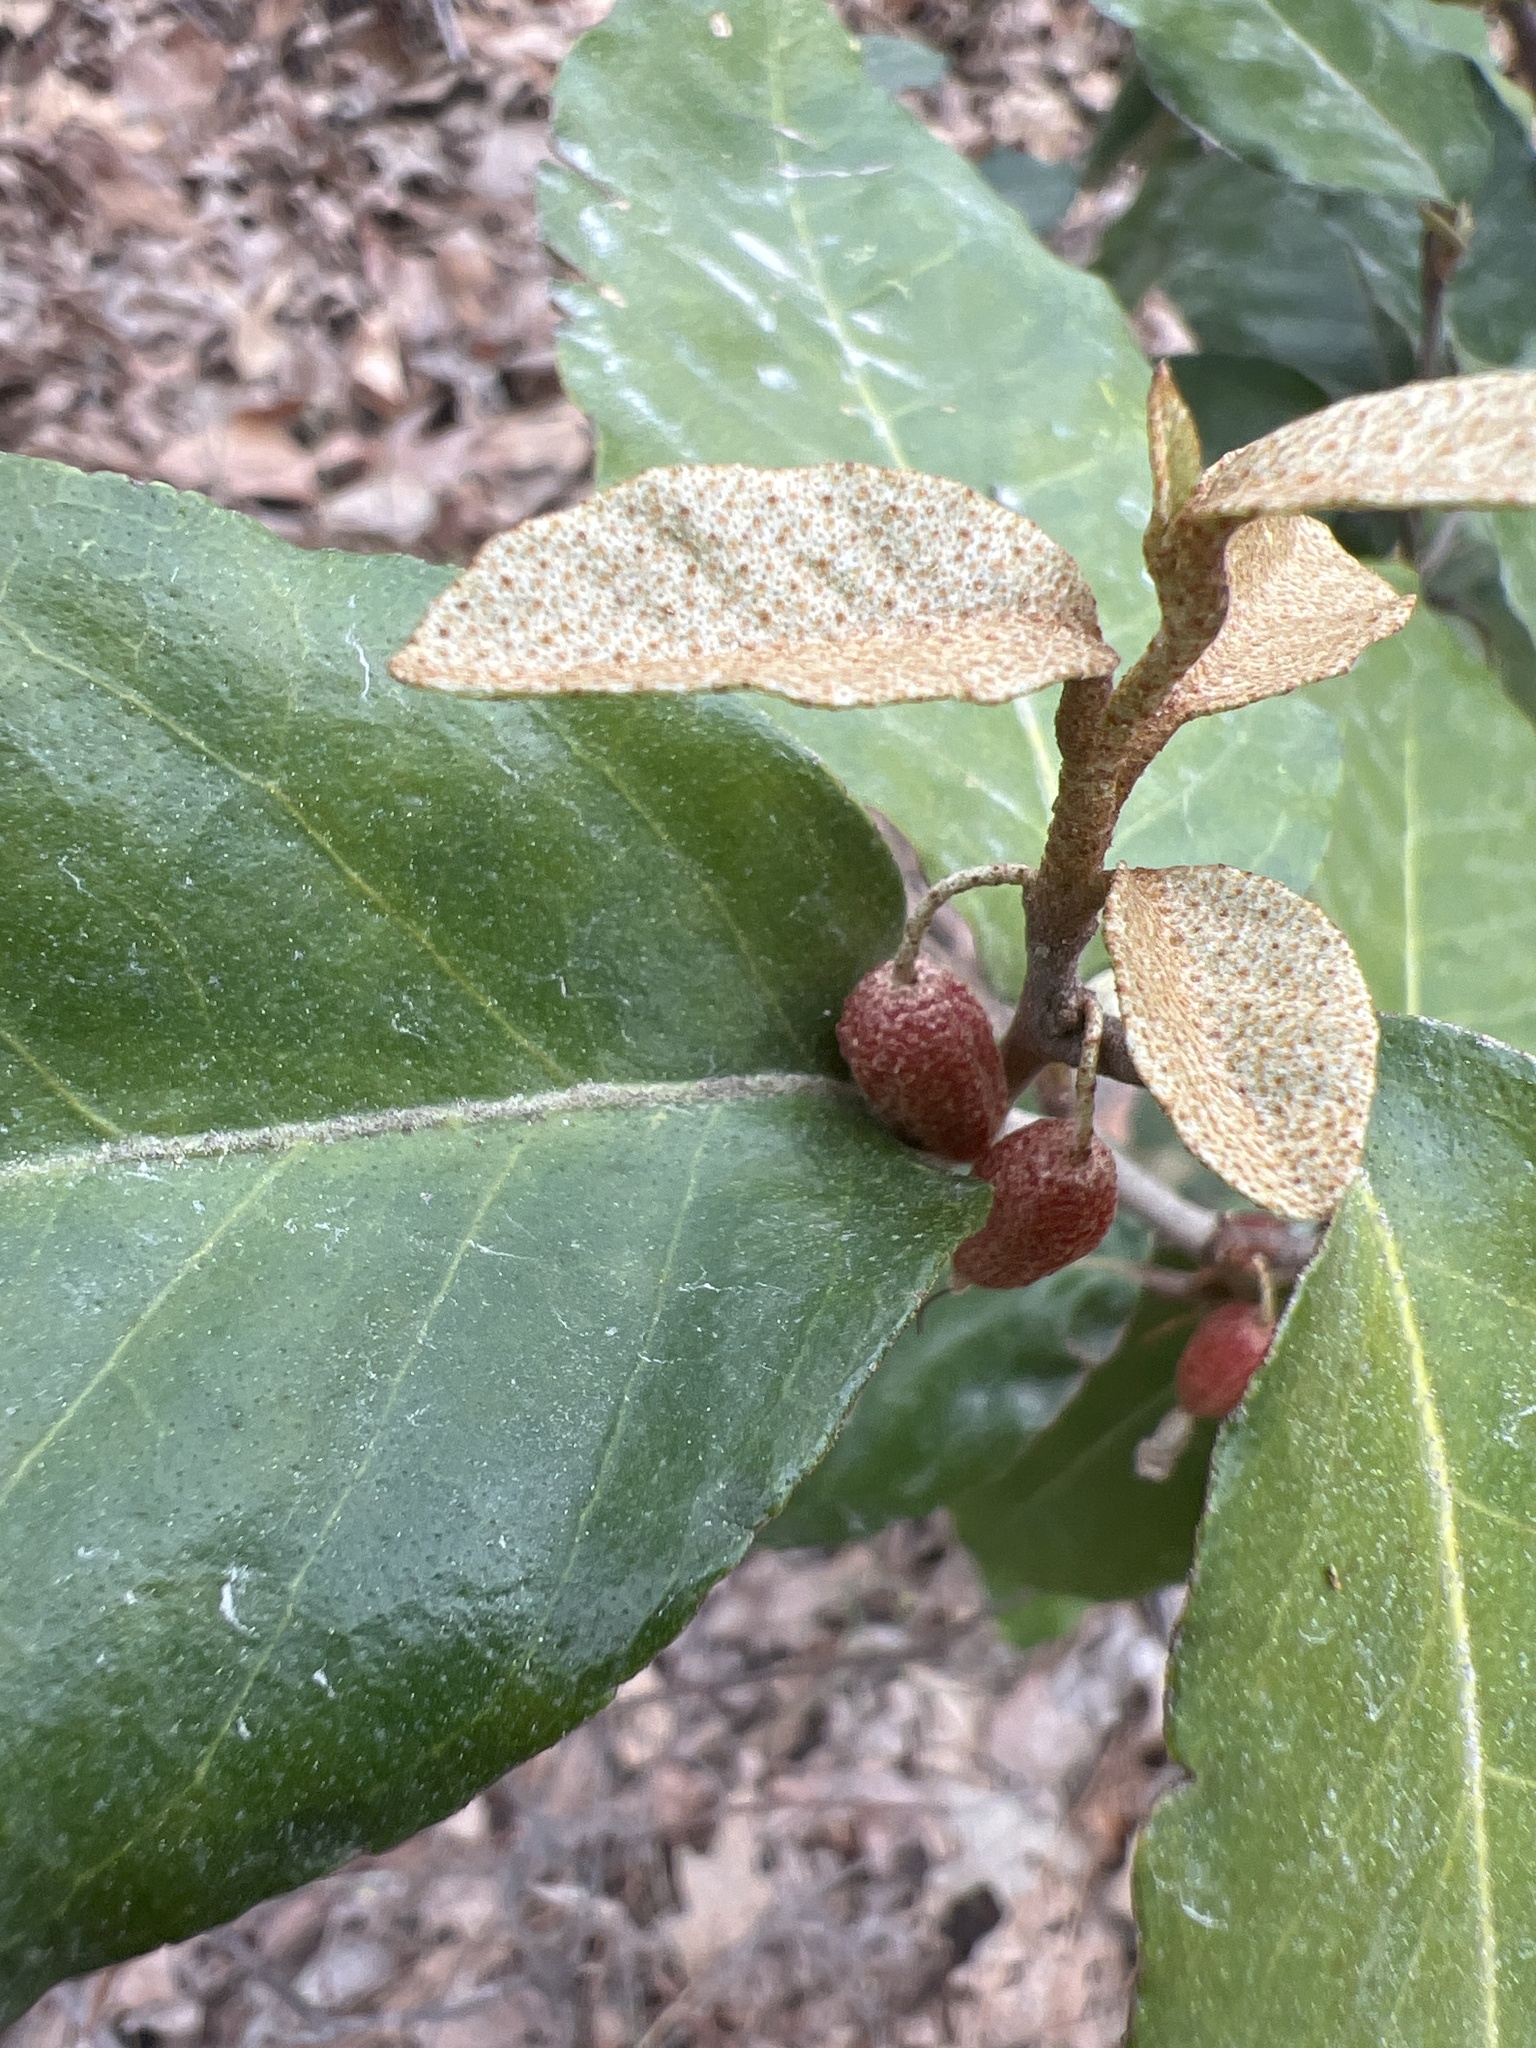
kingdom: Plantae
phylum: Tracheophyta
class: Magnoliopsida
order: Rosales
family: Elaeagnaceae
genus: Elaeagnus
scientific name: Elaeagnus pungens
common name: Spiny oleaster
